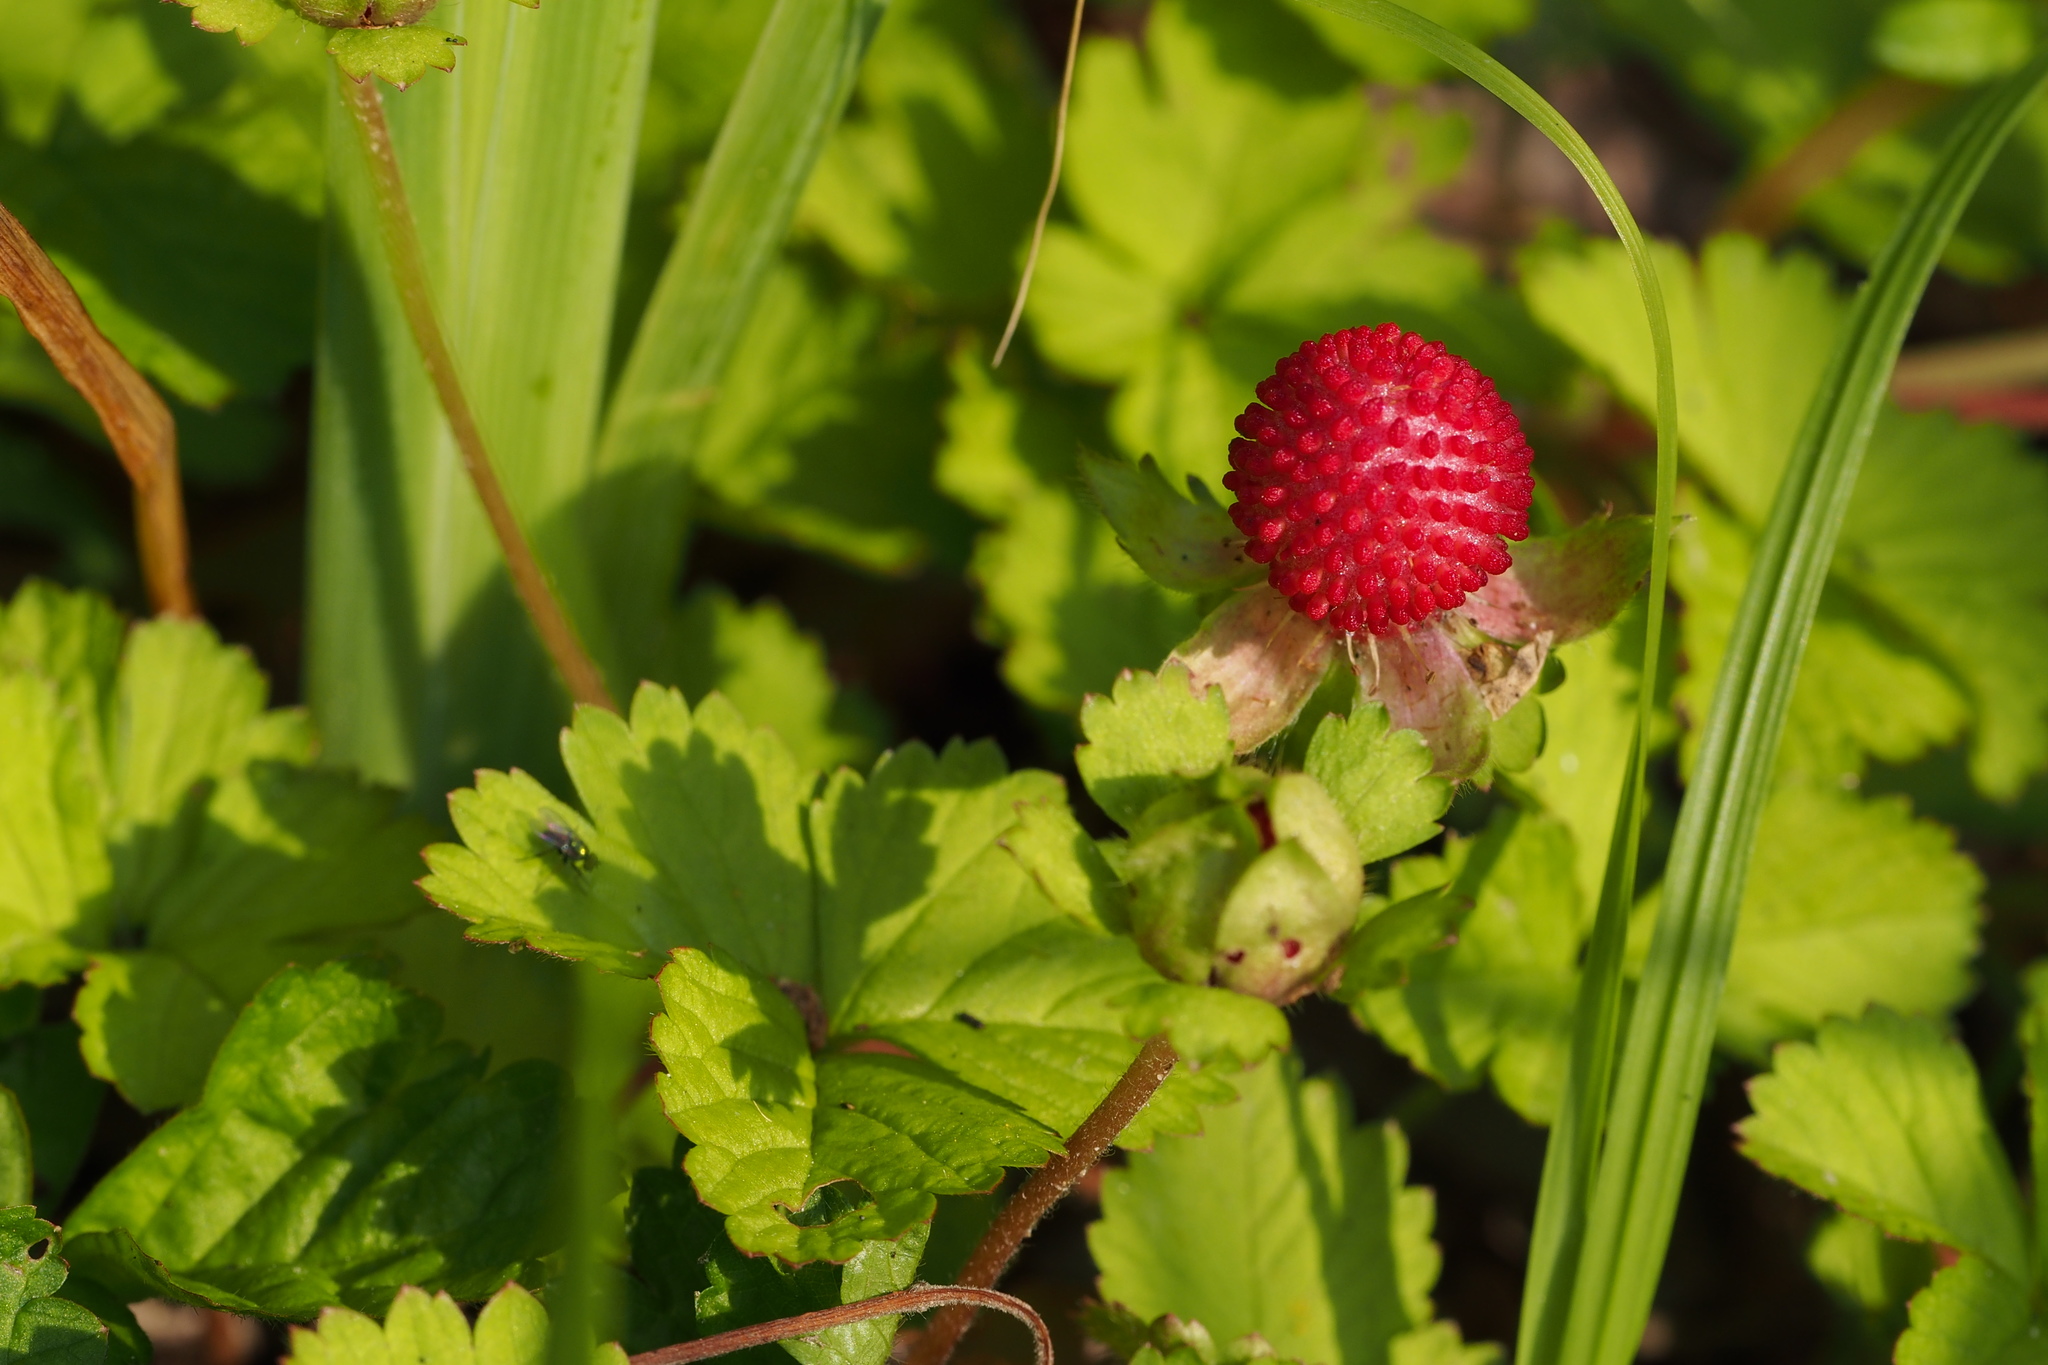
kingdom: Plantae
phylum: Tracheophyta
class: Magnoliopsida
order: Rosales
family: Rosaceae
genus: Potentilla
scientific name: Potentilla wallichiana
